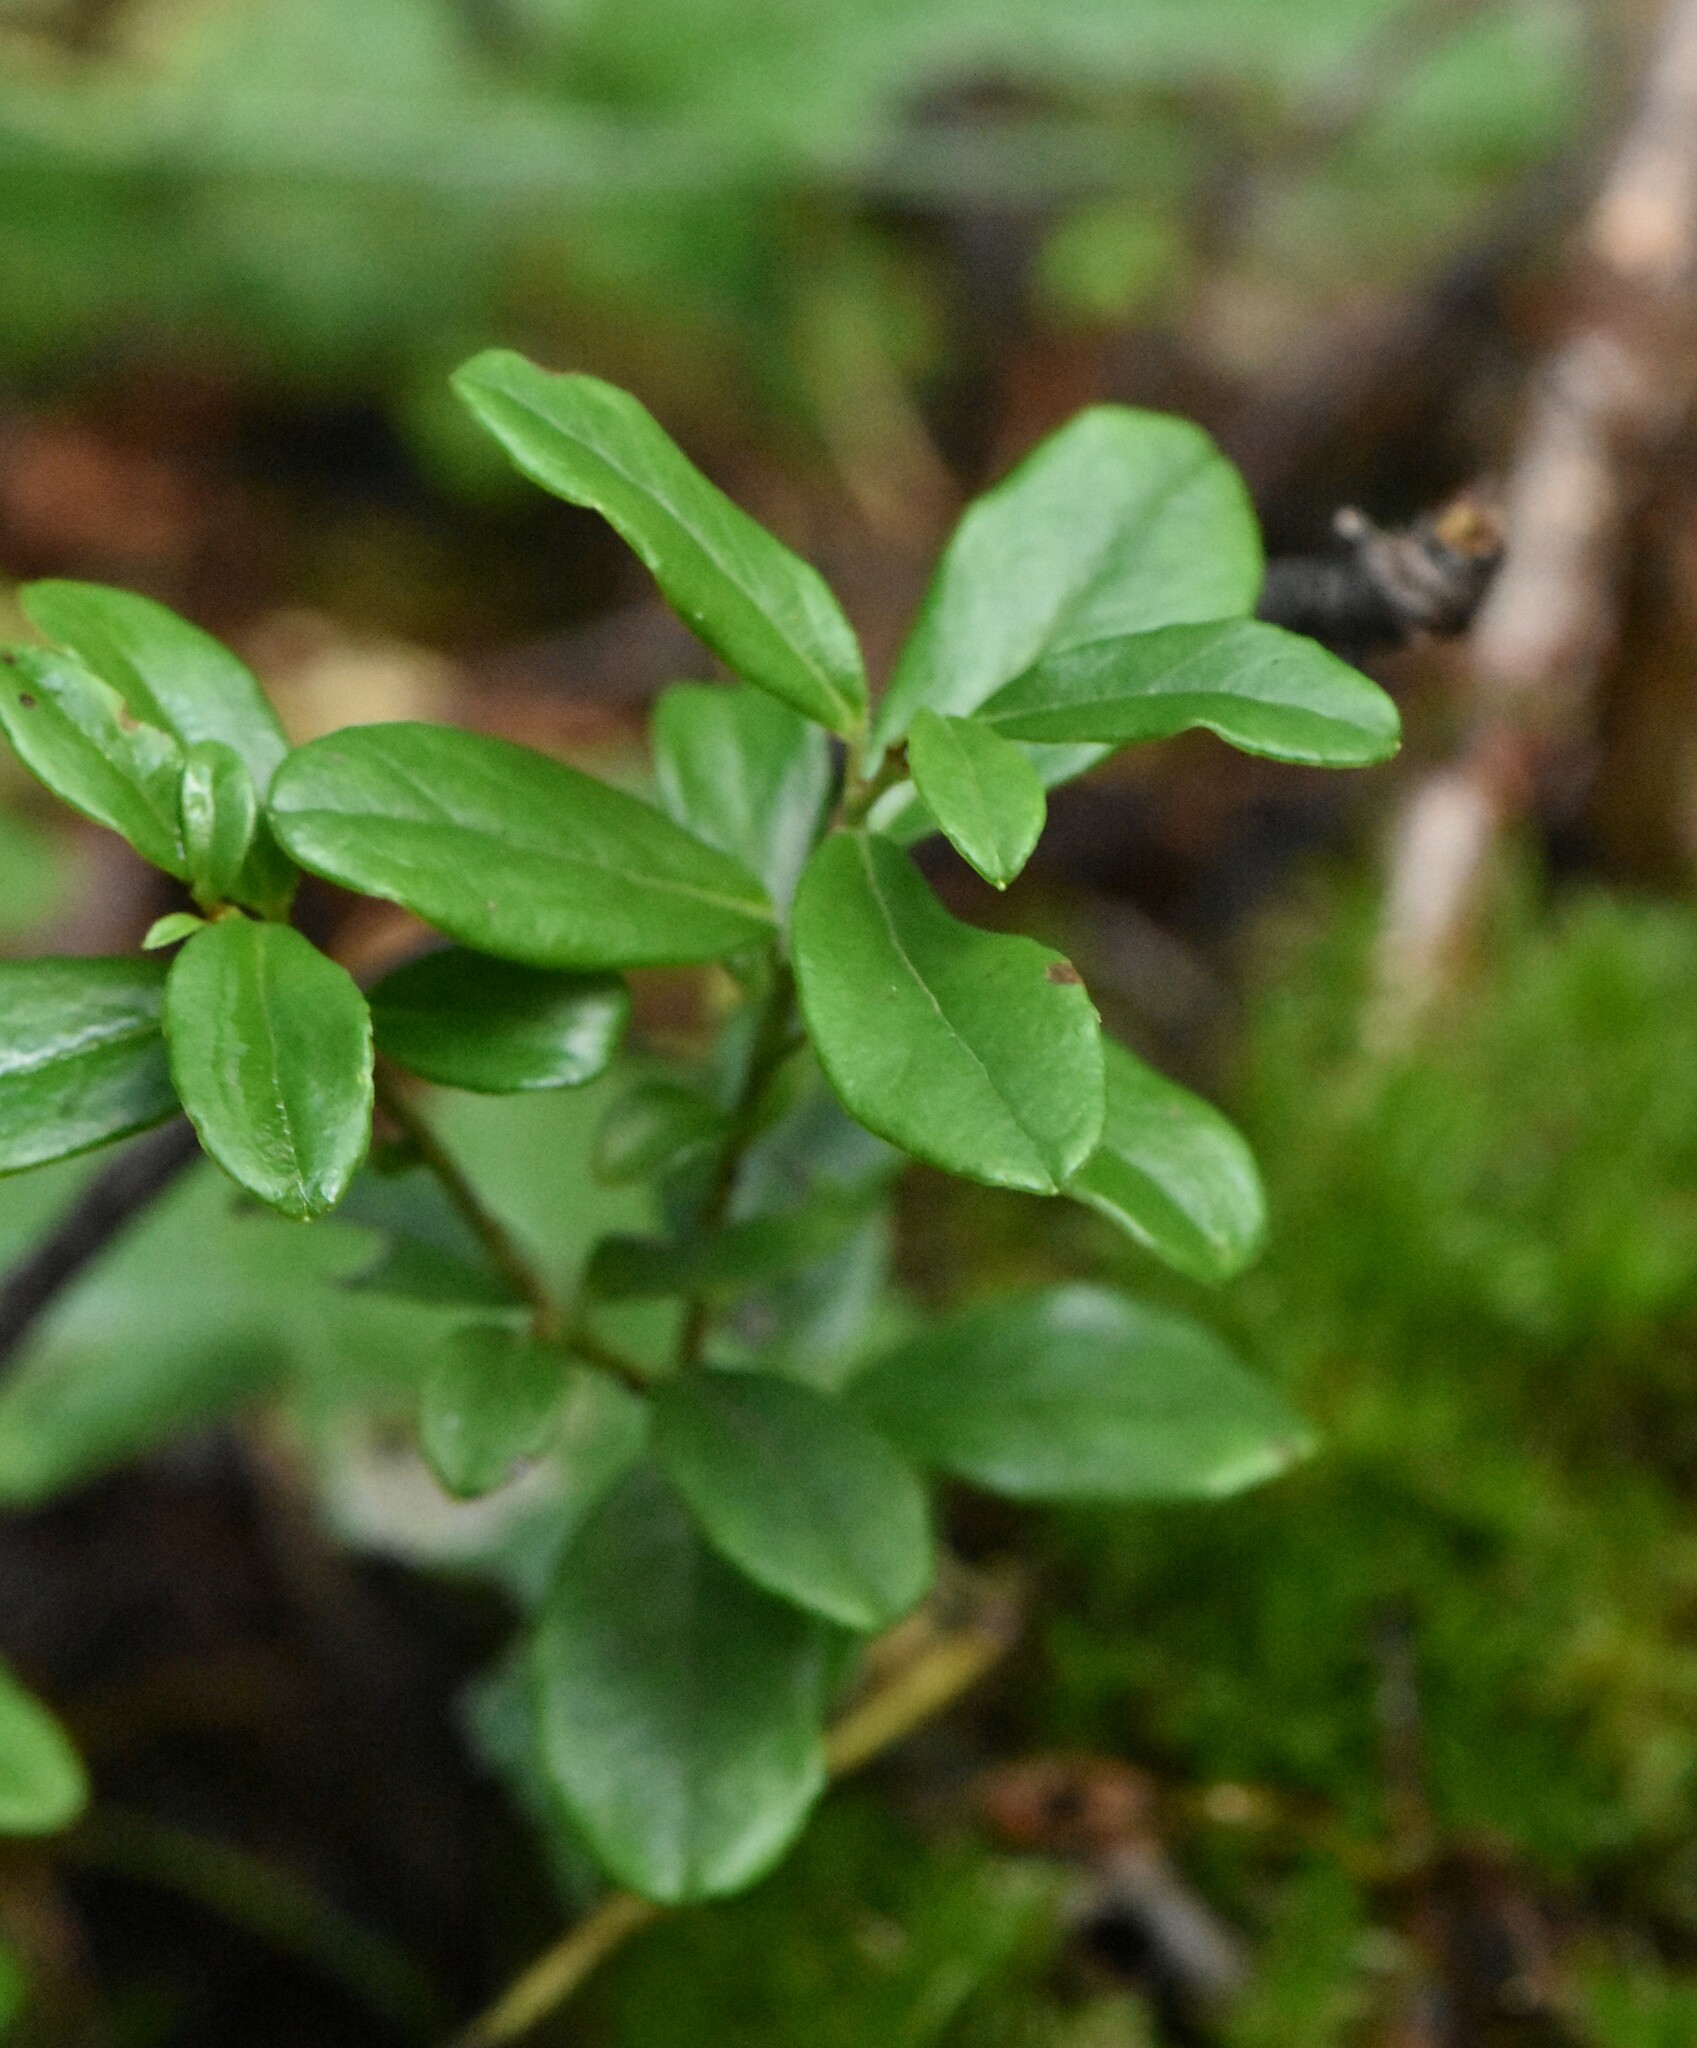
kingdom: Plantae
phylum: Tracheophyta
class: Magnoliopsida
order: Ericales
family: Ericaceae
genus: Vaccinium
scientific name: Vaccinium vitis-idaea
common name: Cowberry
